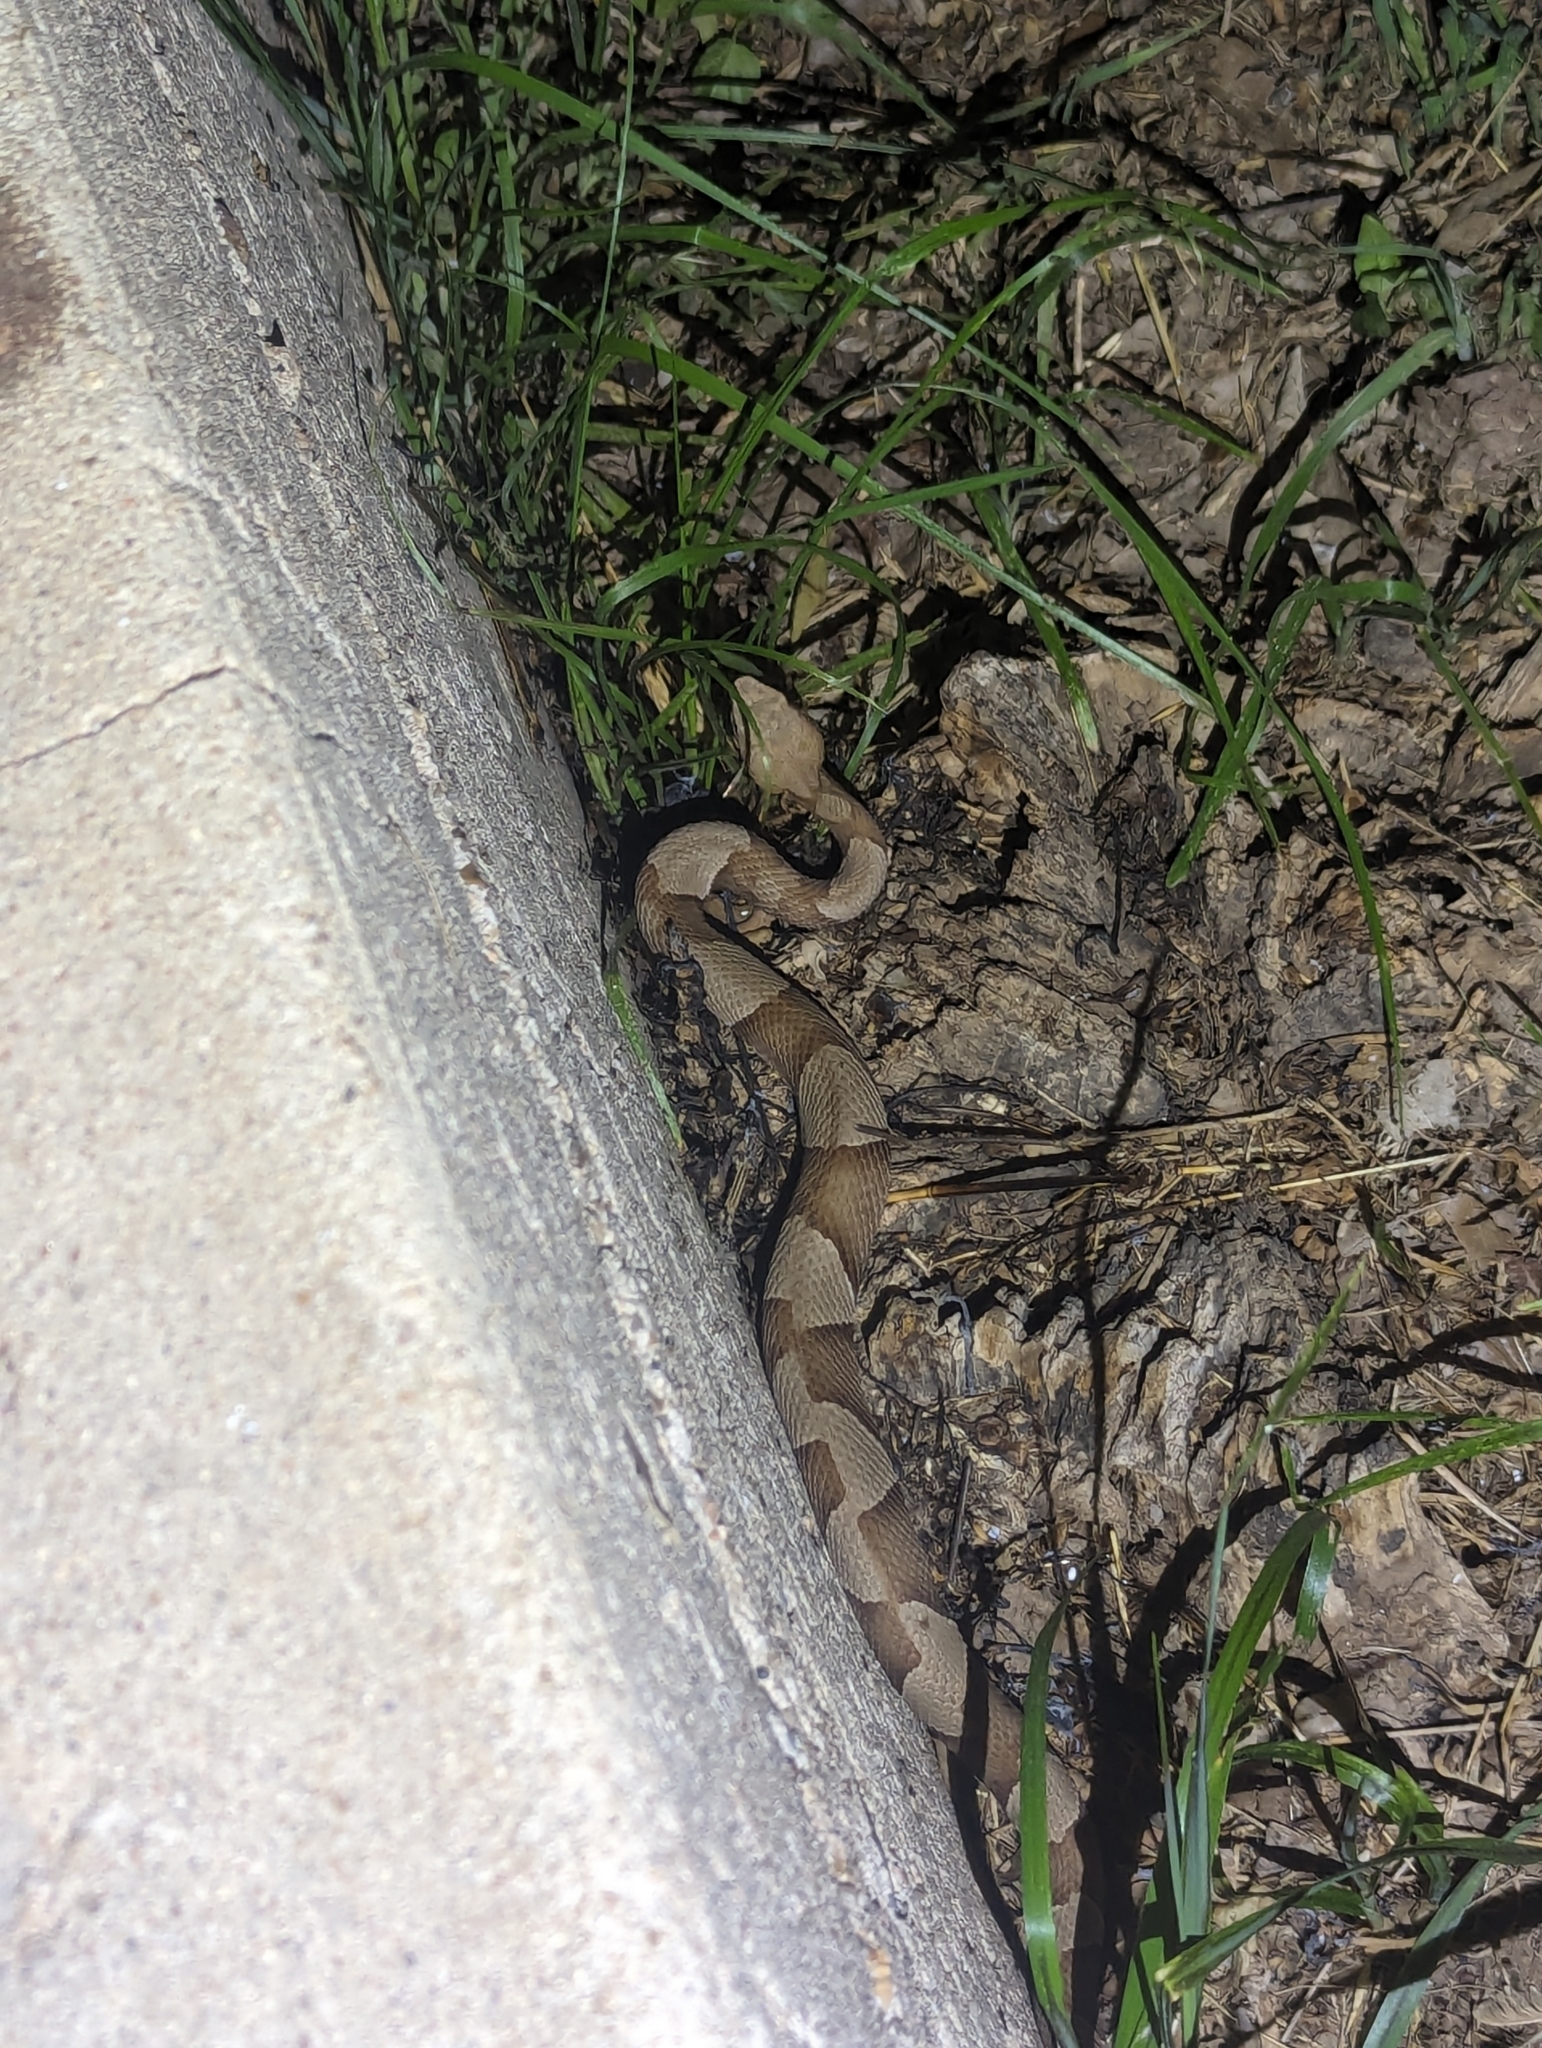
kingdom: Animalia
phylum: Chordata
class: Squamata
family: Viperidae
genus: Agkistrodon
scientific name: Agkistrodon laticinctus
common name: Broad-banded copperhead
